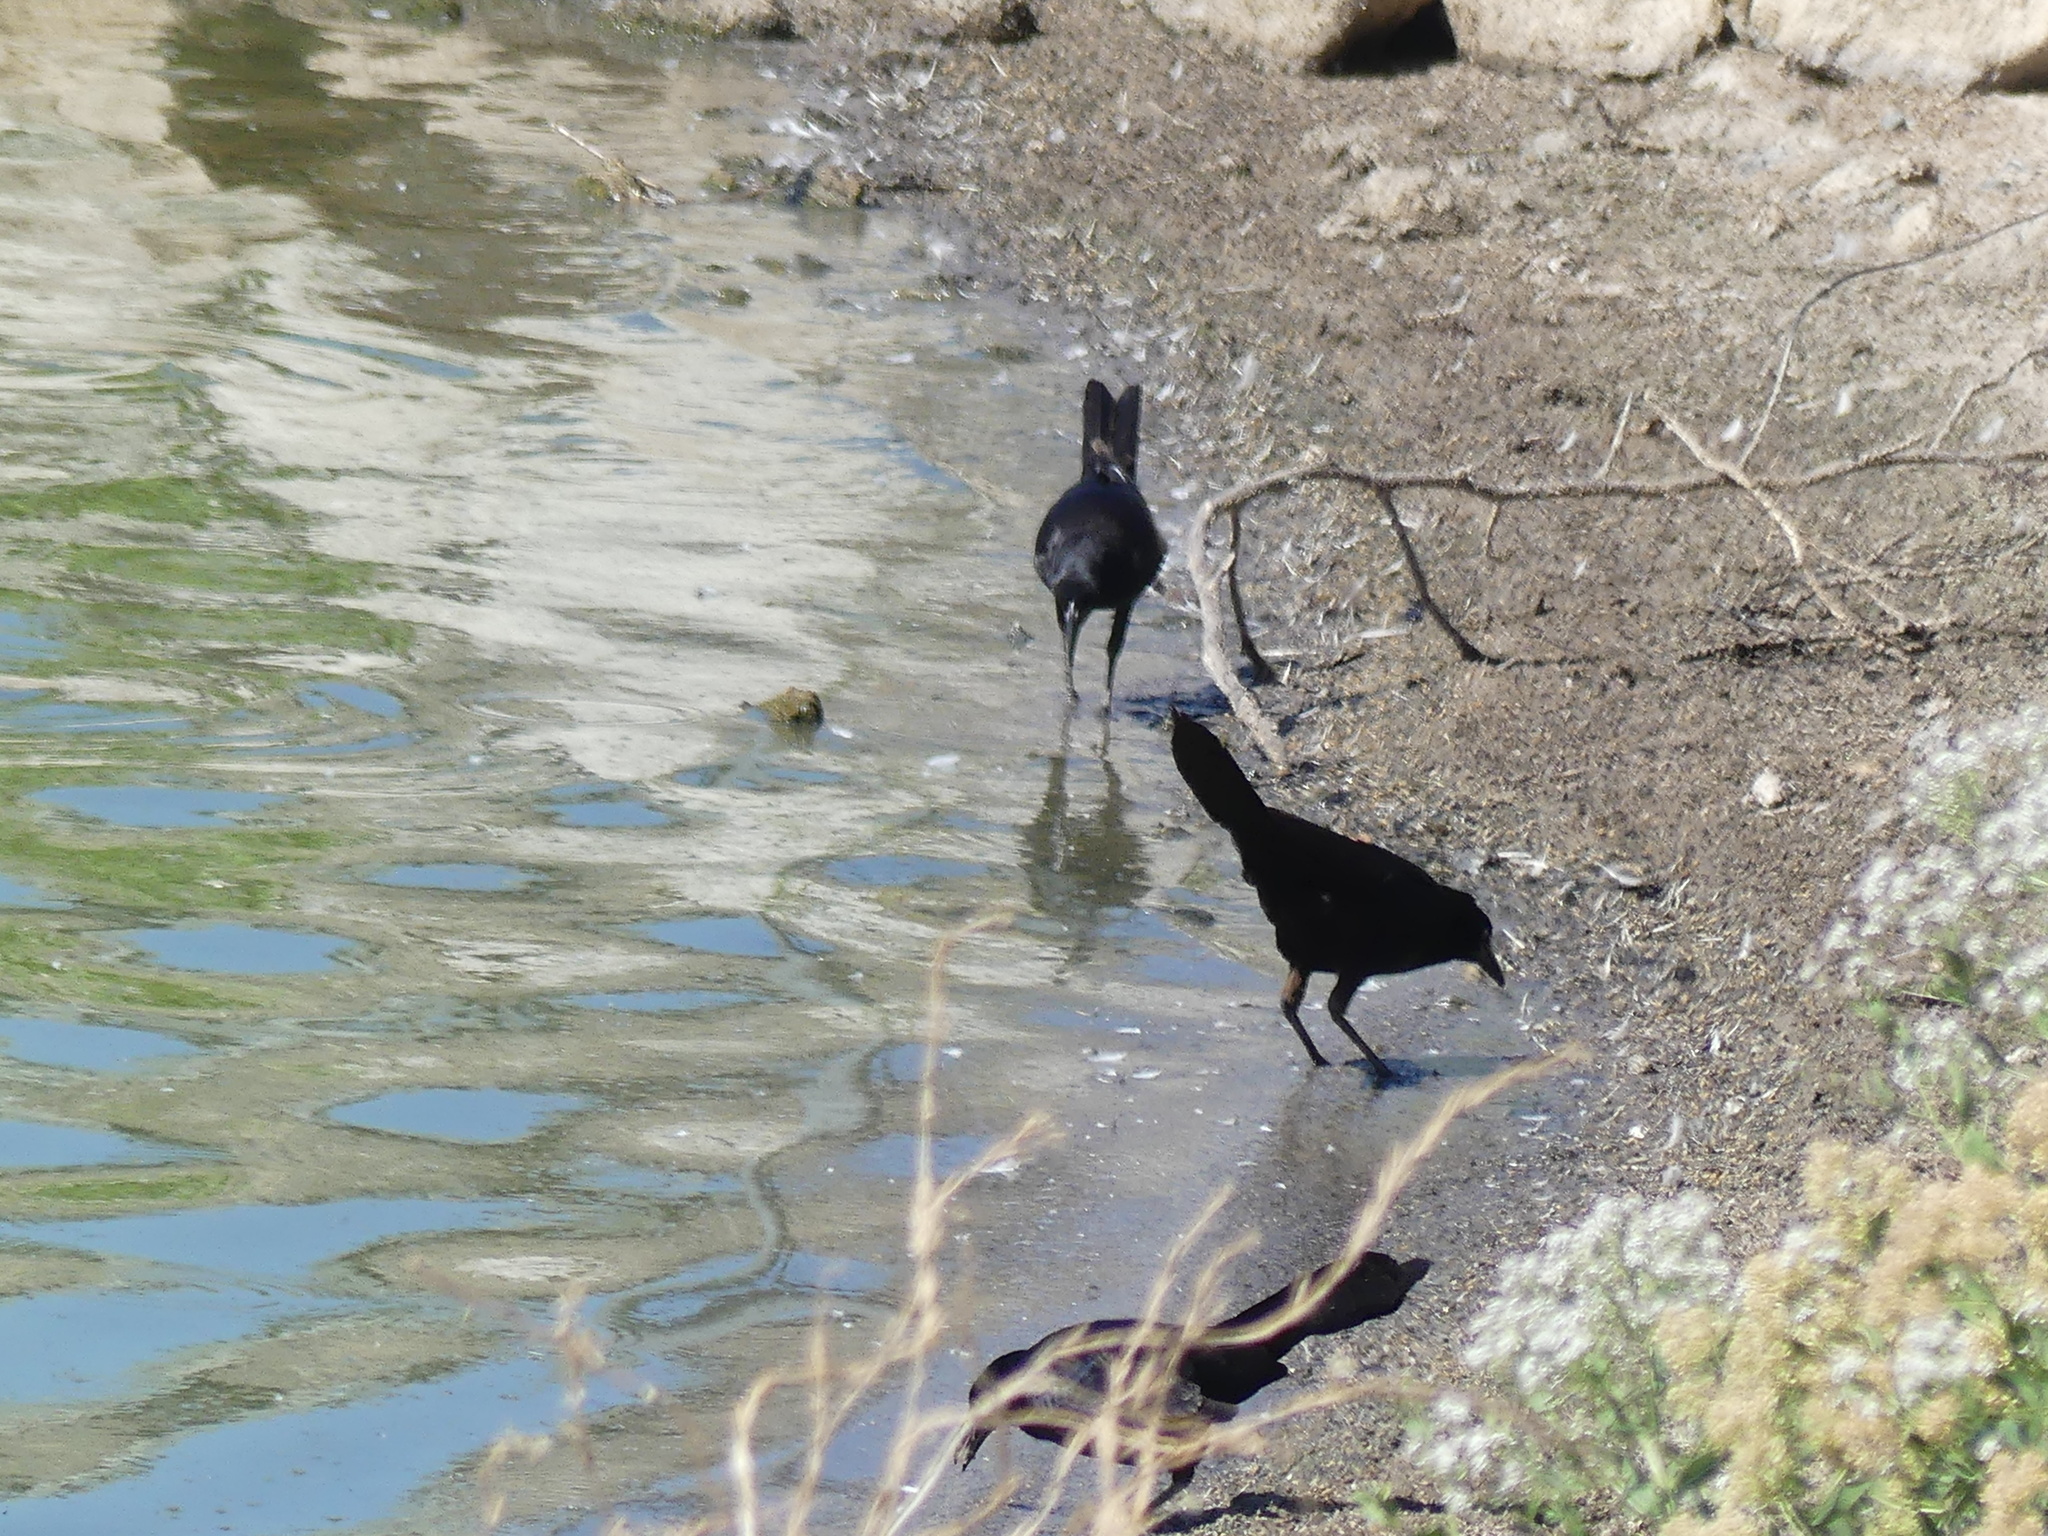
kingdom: Animalia
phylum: Chordata
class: Aves
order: Passeriformes
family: Icteridae
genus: Quiscalus
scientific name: Quiscalus mexicanus
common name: Great-tailed grackle
